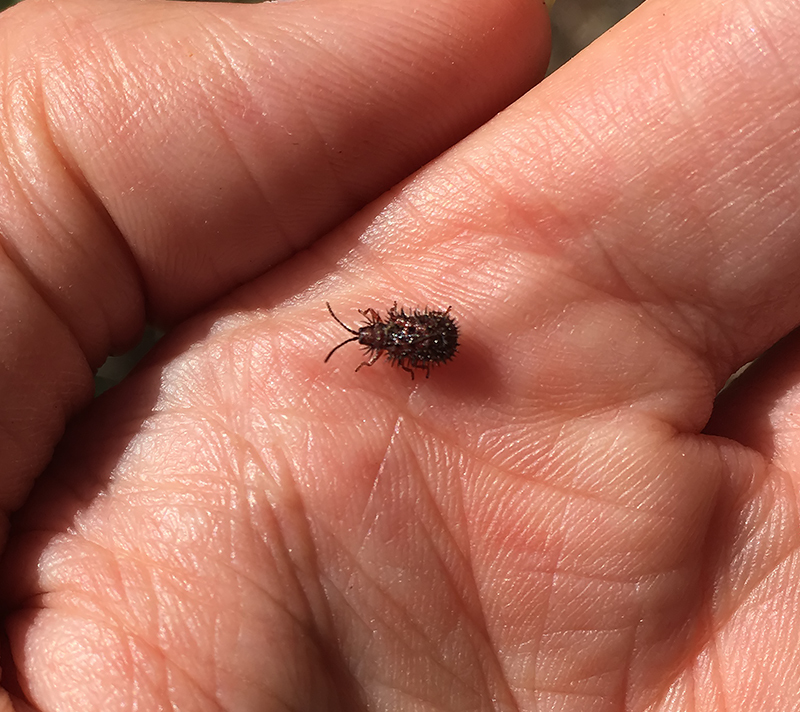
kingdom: Animalia
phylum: Arthropoda
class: Insecta
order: Coleoptera
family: Chrysomelidae
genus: Dicladispa
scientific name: Dicladispa testacea
